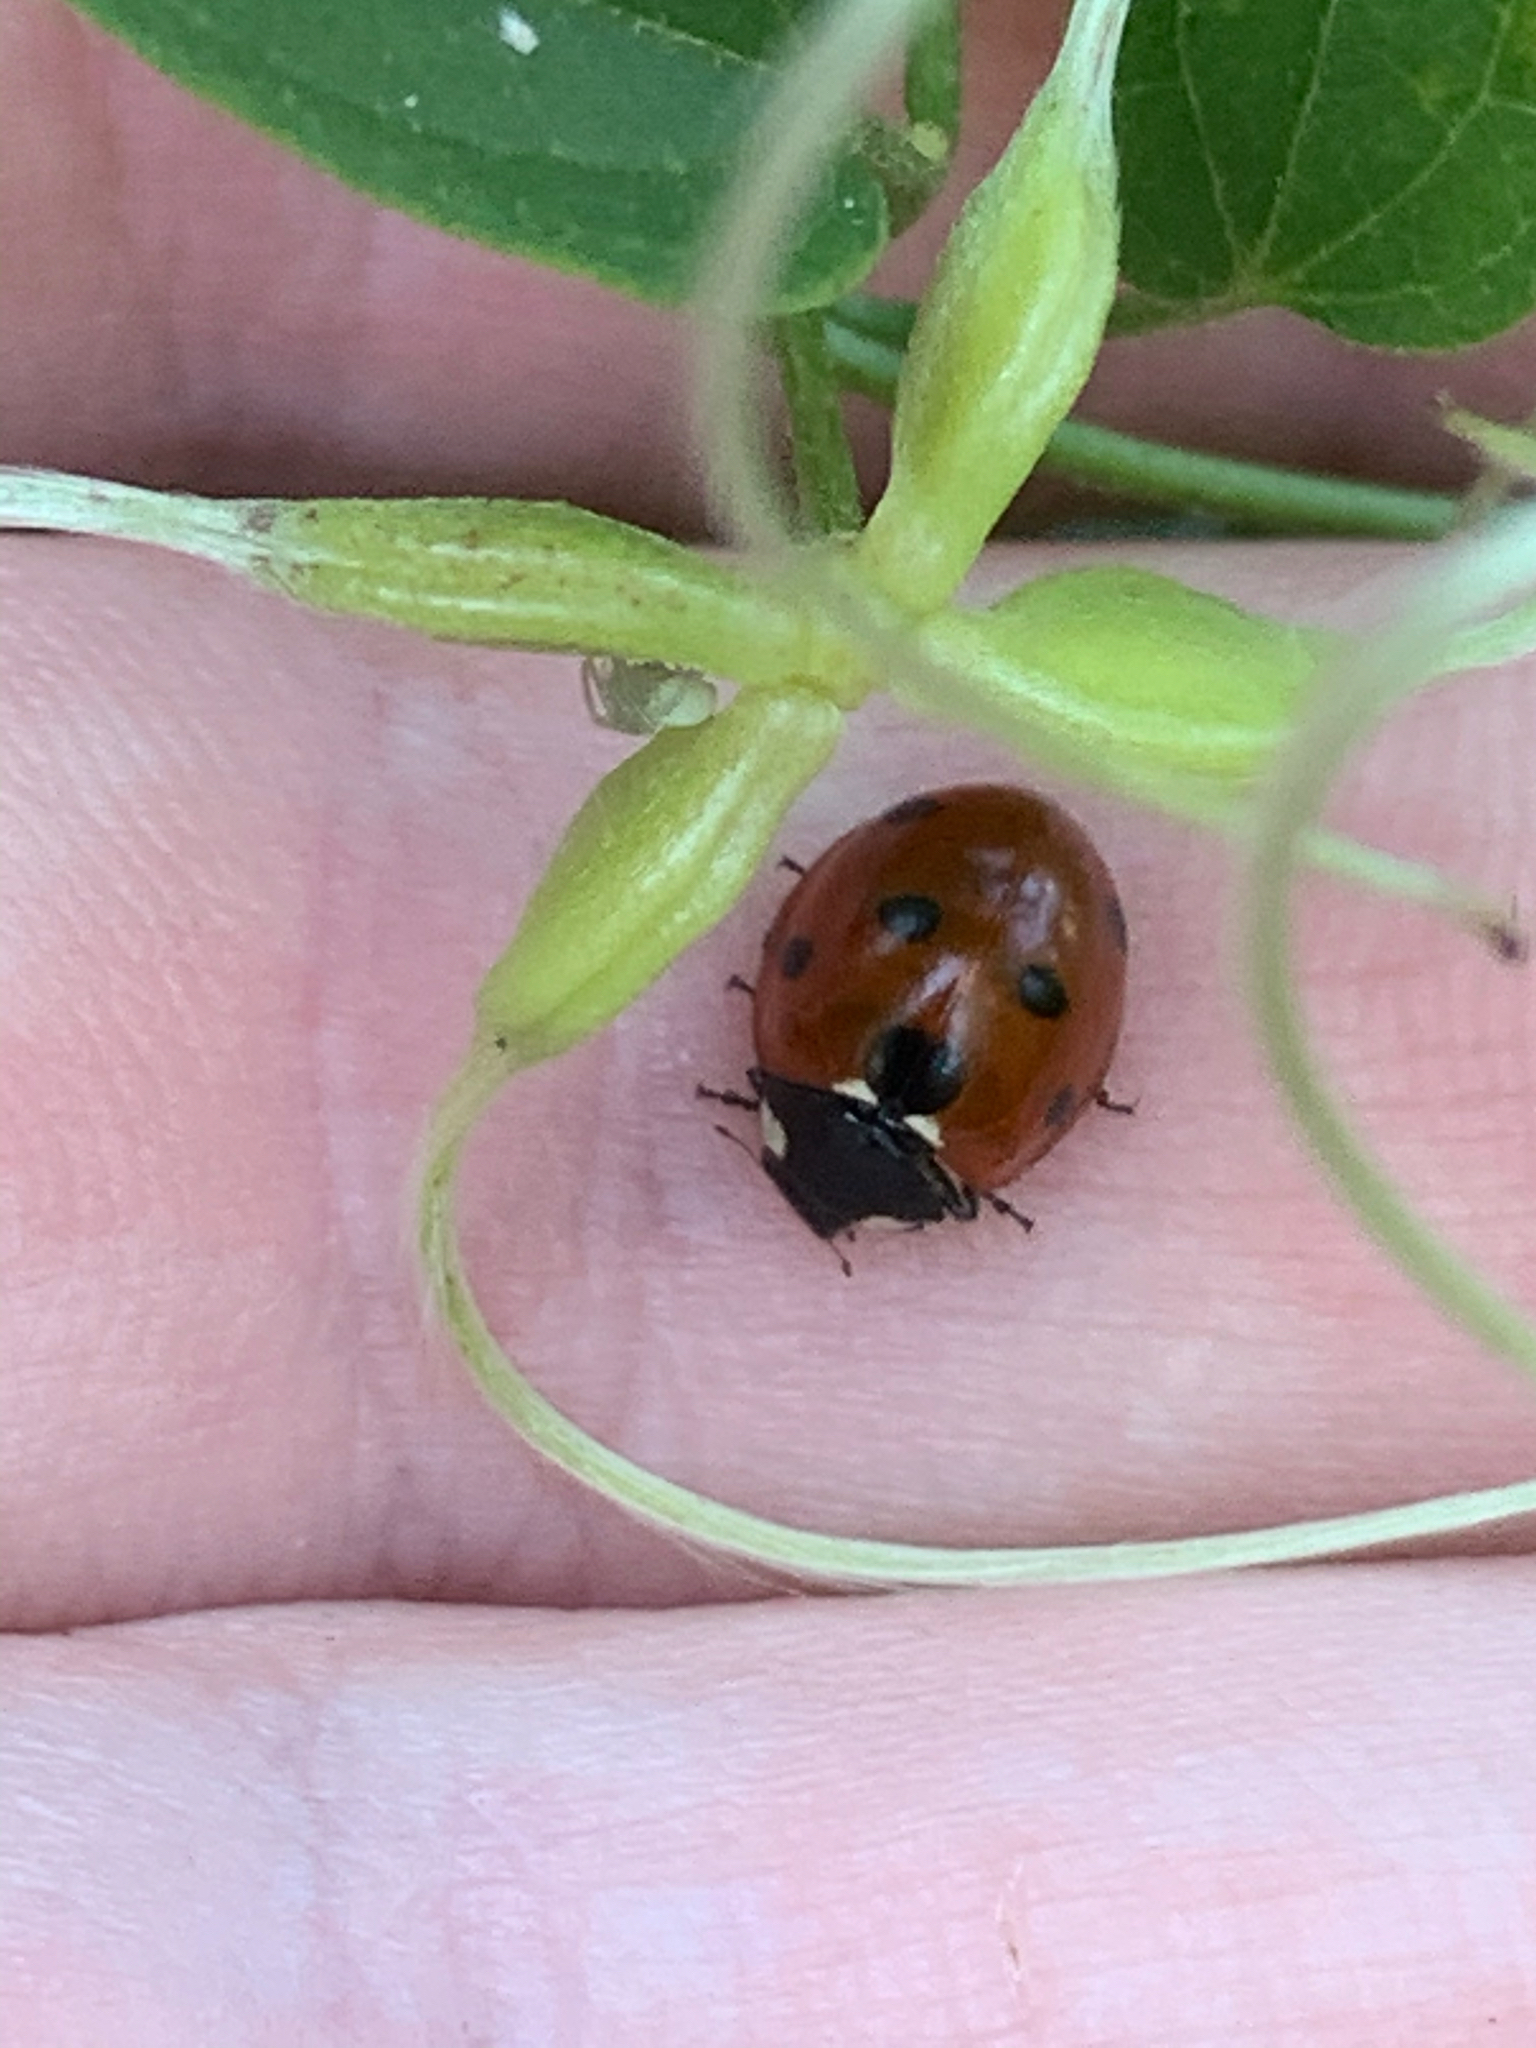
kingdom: Animalia
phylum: Arthropoda
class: Insecta
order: Coleoptera
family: Coccinellidae
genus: Coccinella
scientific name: Coccinella septempunctata
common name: Sevenspotted lady beetle
